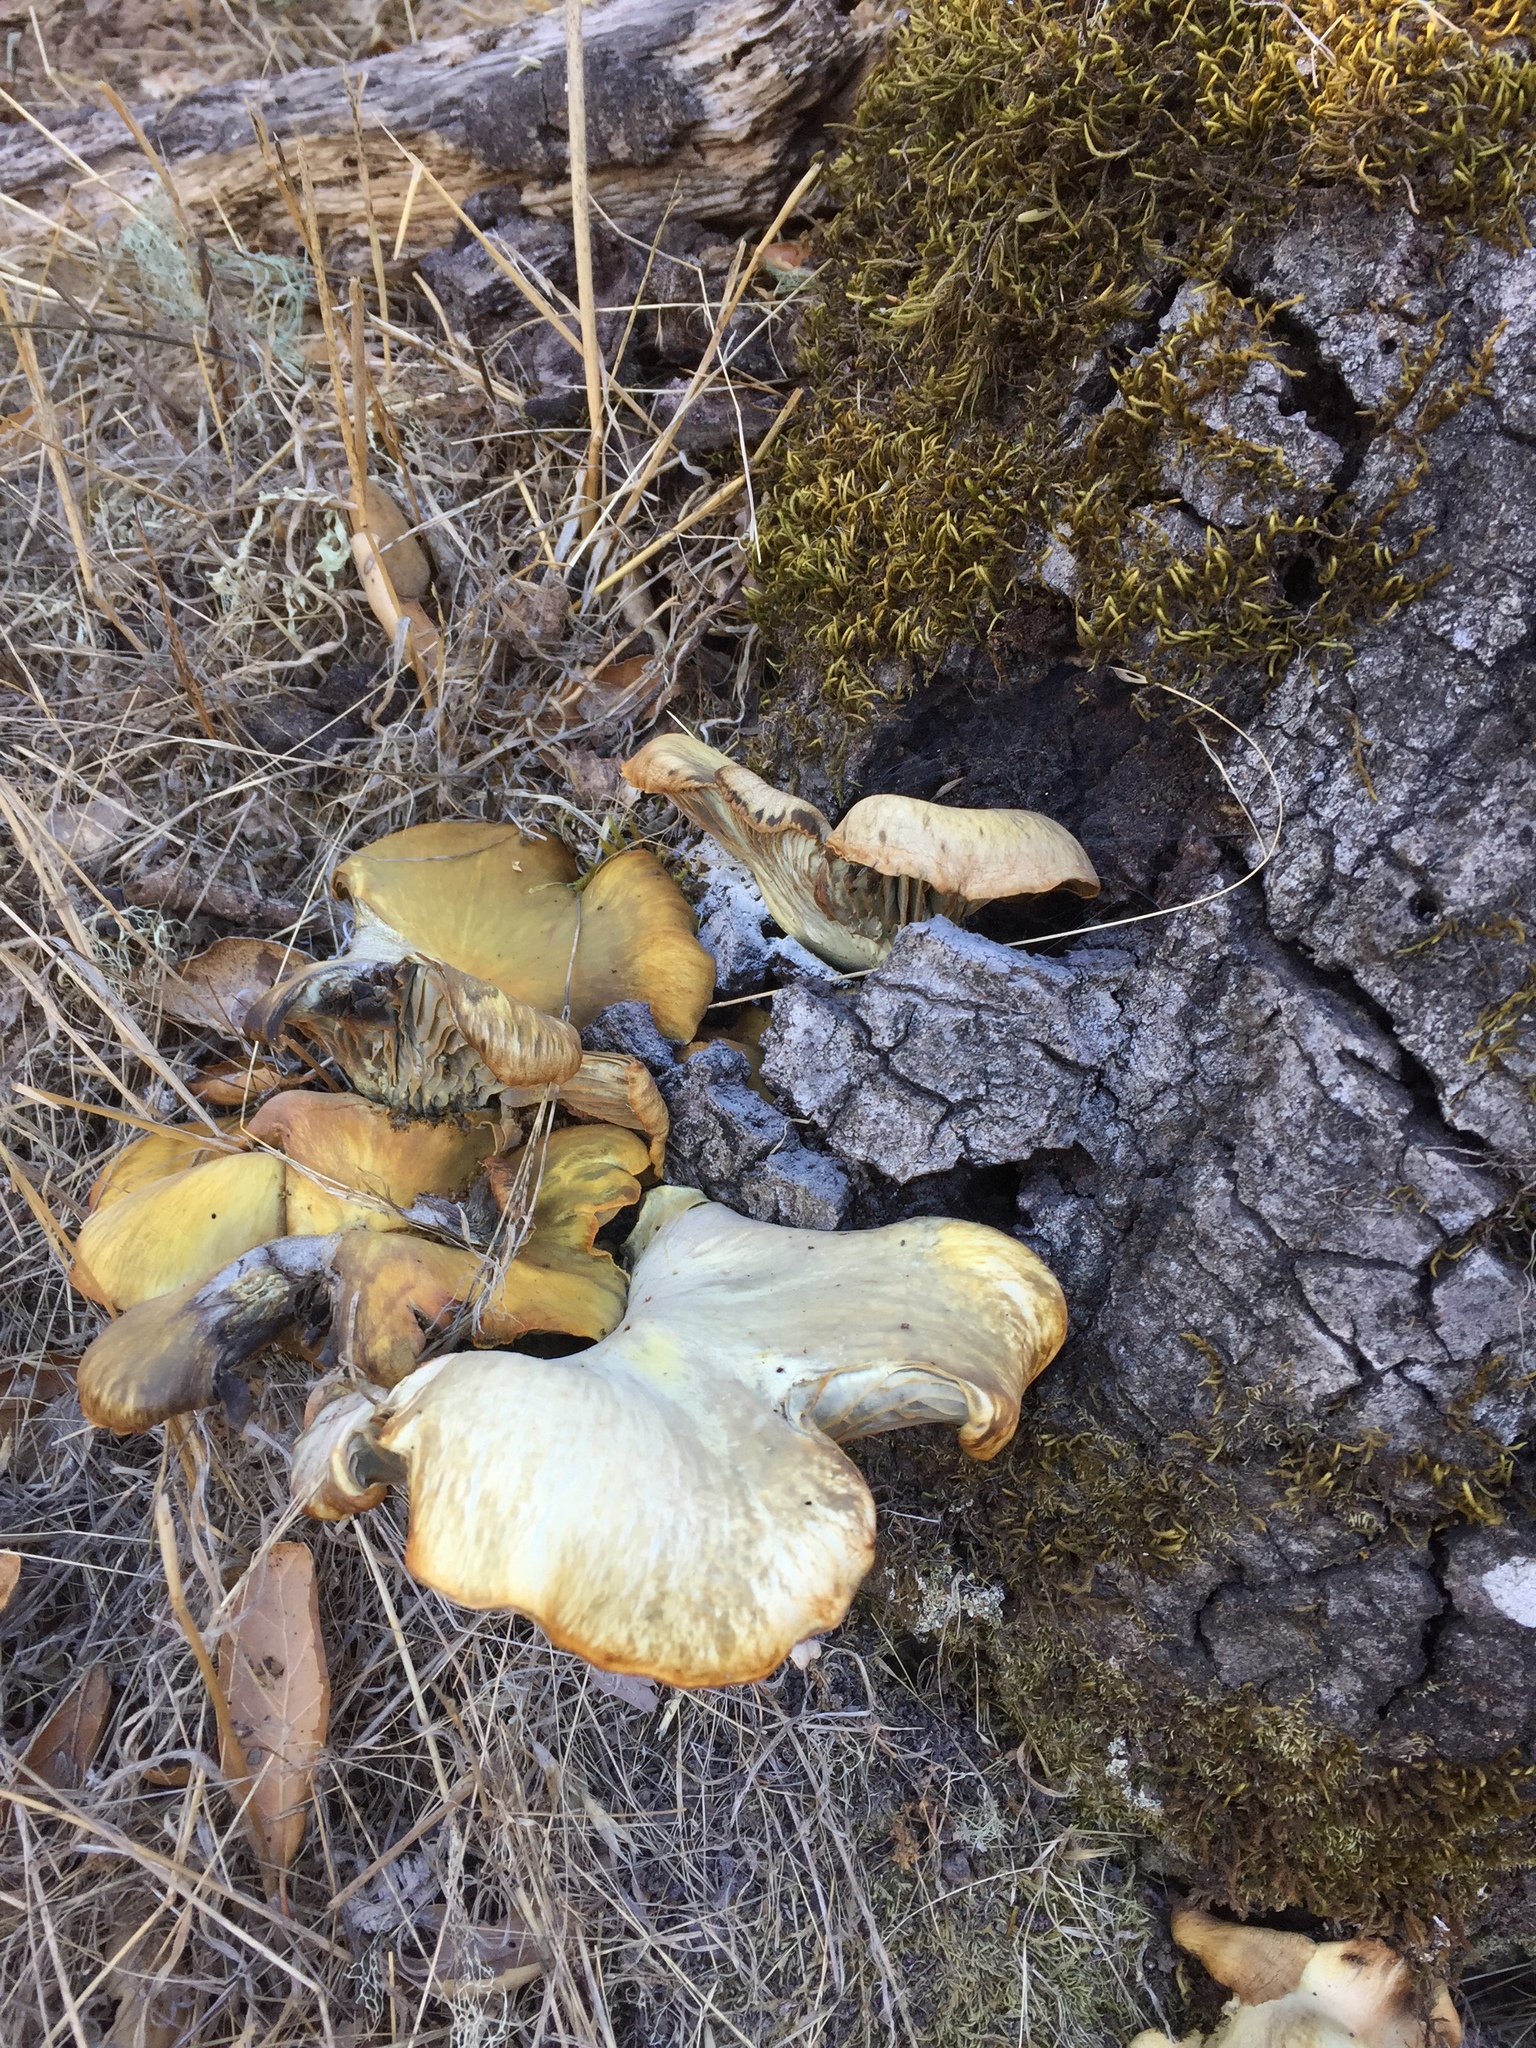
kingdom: Fungi
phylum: Basidiomycota
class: Agaricomycetes
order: Agaricales
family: Omphalotaceae
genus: Omphalotus
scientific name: Omphalotus olivascens
